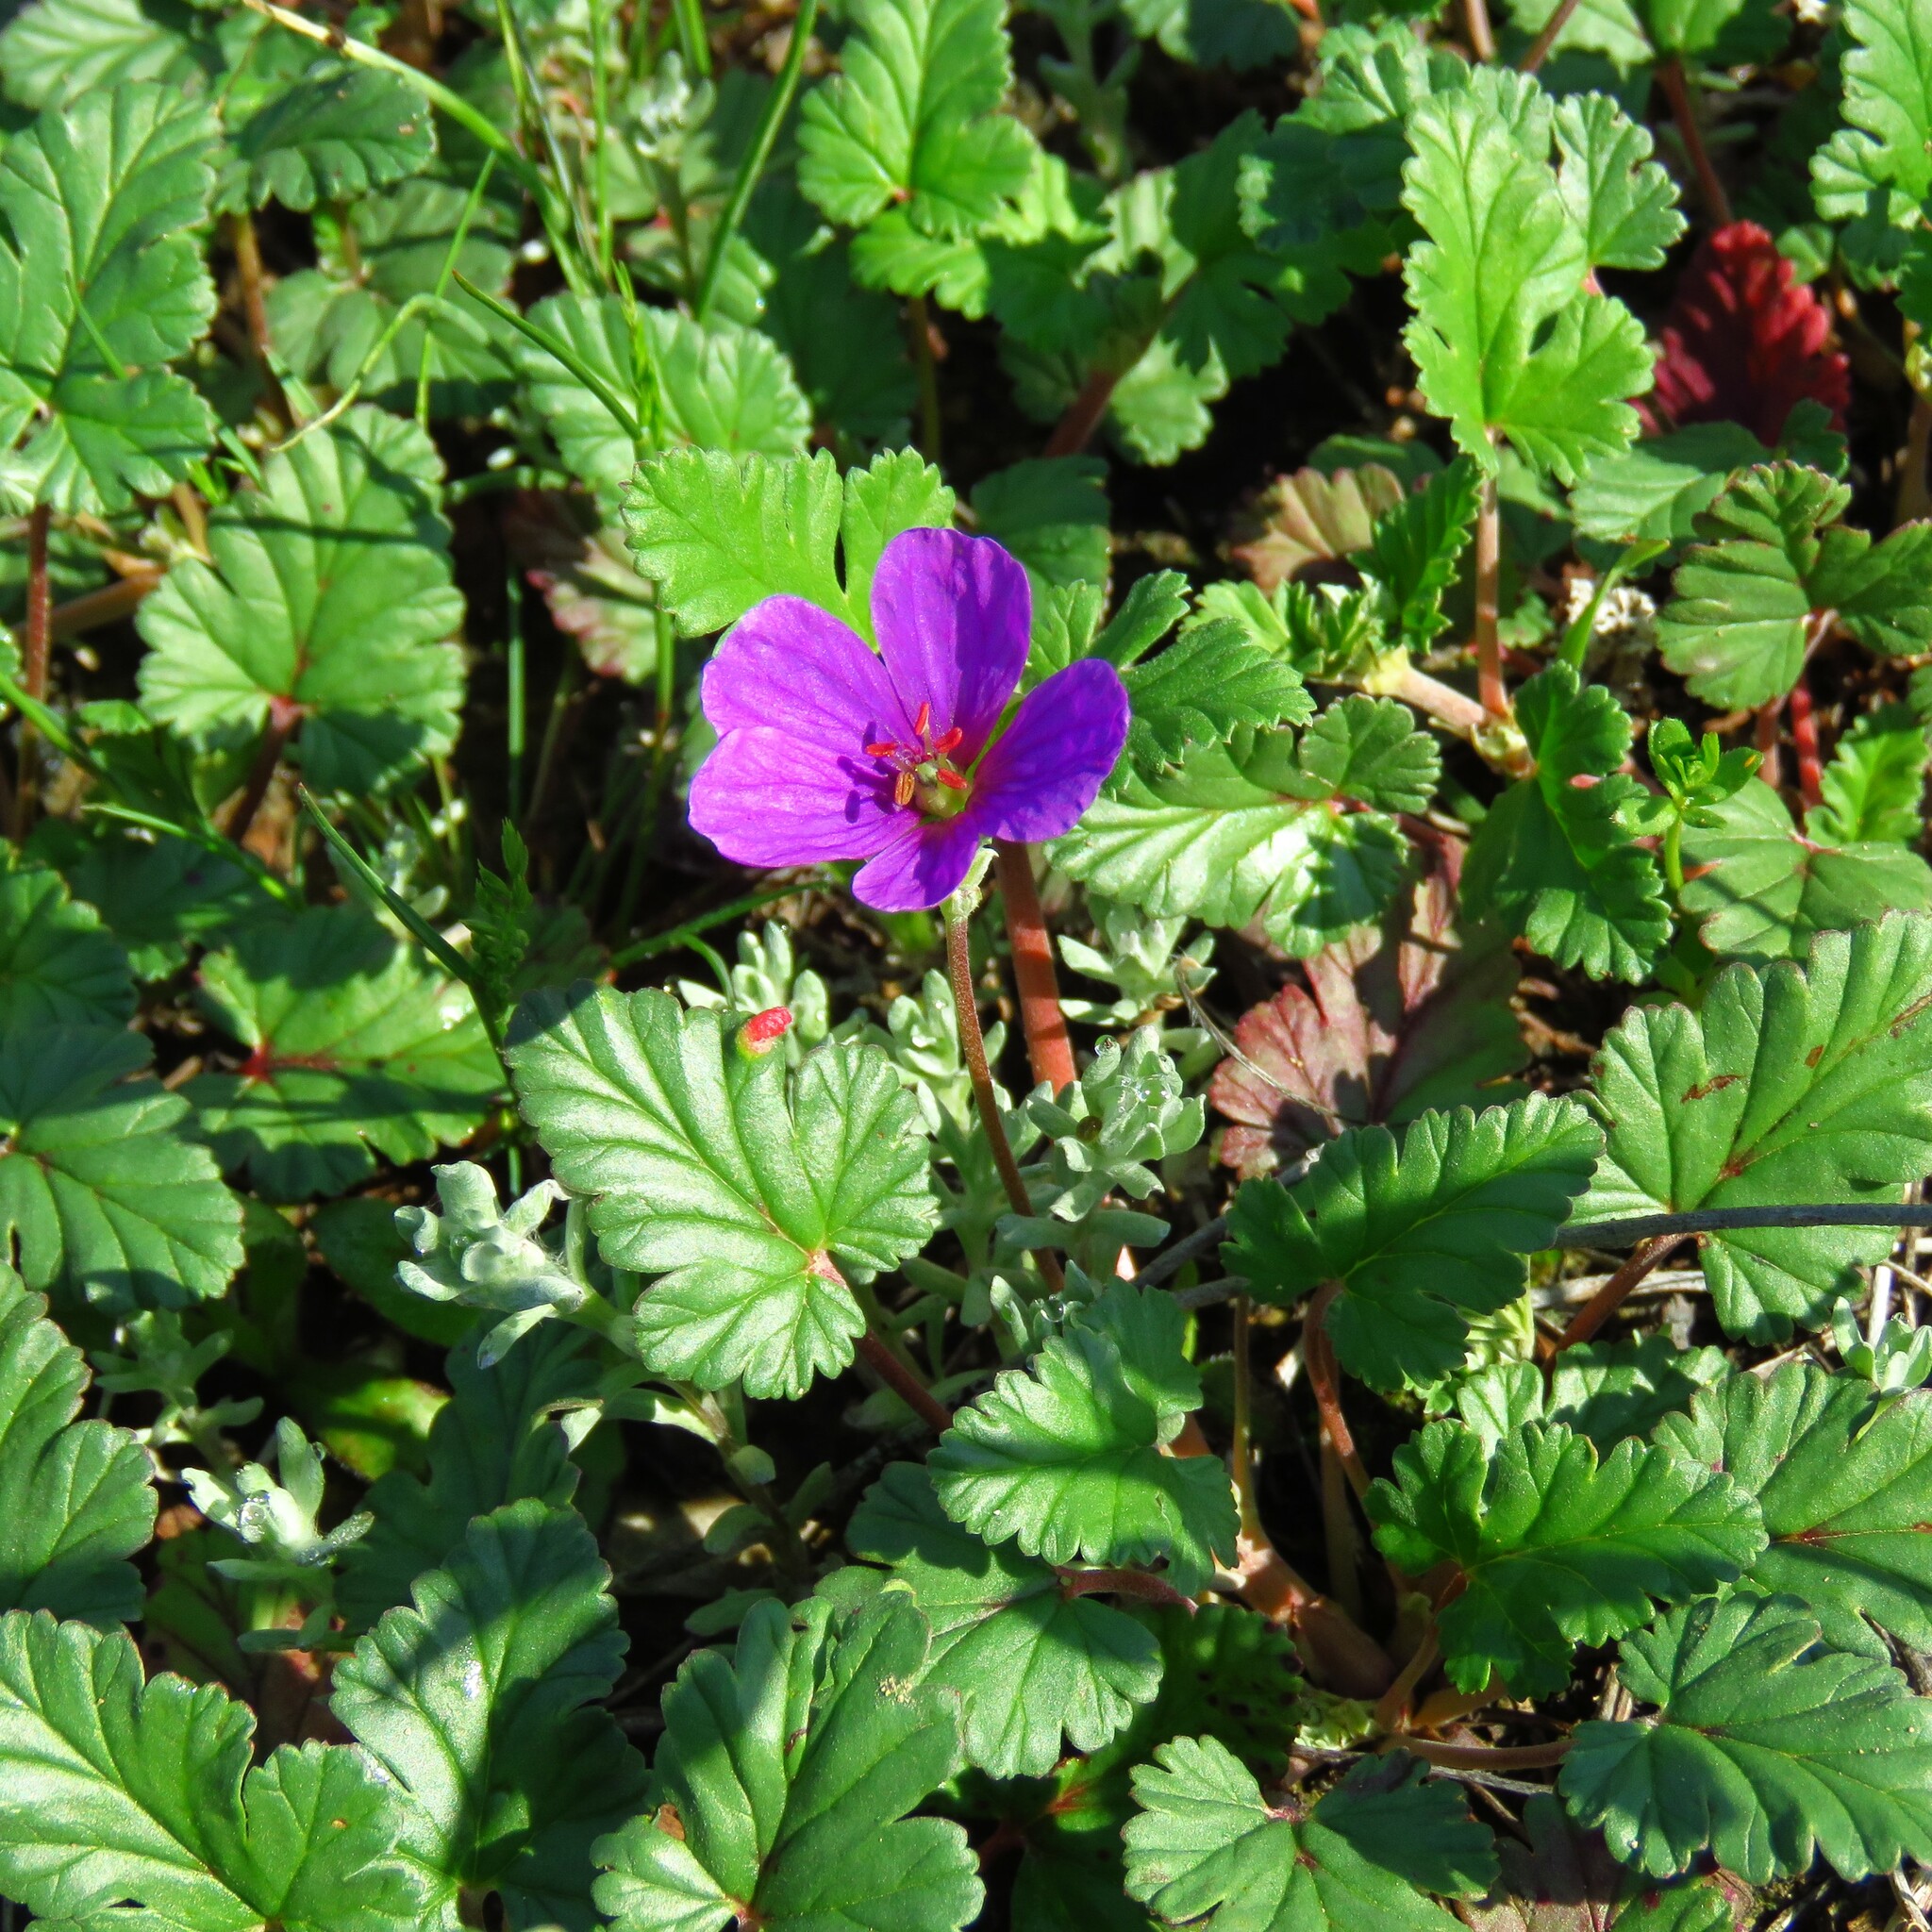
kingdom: Plantae
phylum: Tracheophyta
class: Magnoliopsida
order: Geraniales
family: Geraniaceae
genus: Erodium
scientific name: Erodium texanum
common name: Texas stork's-bill
